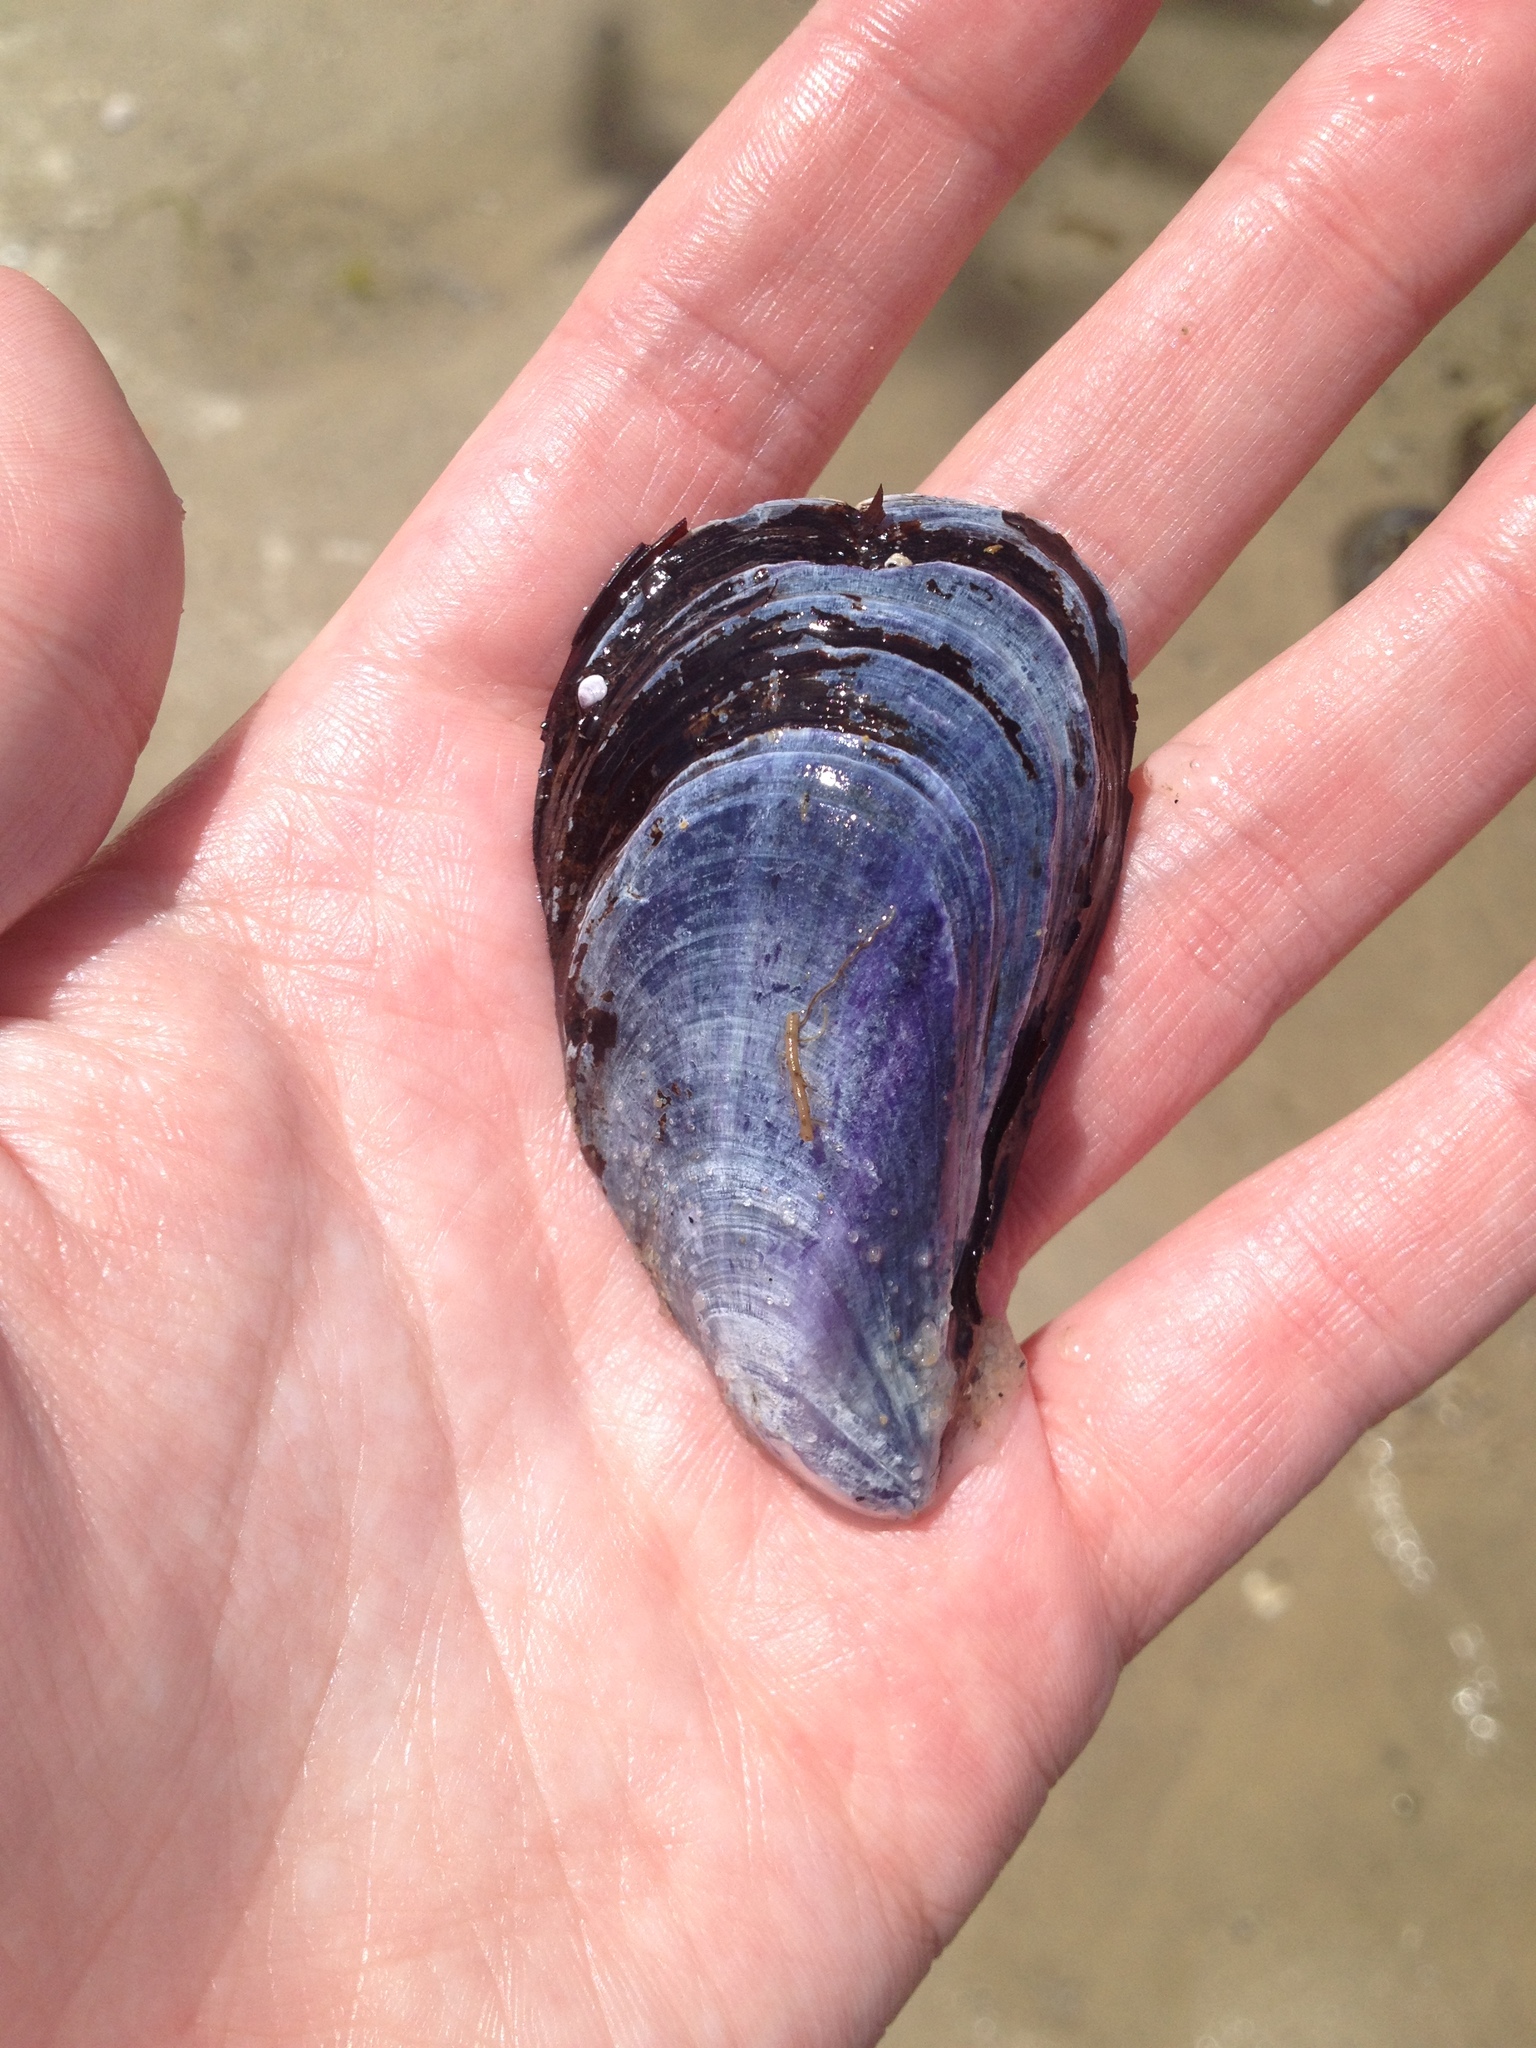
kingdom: Animalia
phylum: Mollusca
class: Bivalvia
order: Mytilida
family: Mytilidae
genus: Mytilus
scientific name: Mytilus edulis
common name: Blue mussel
